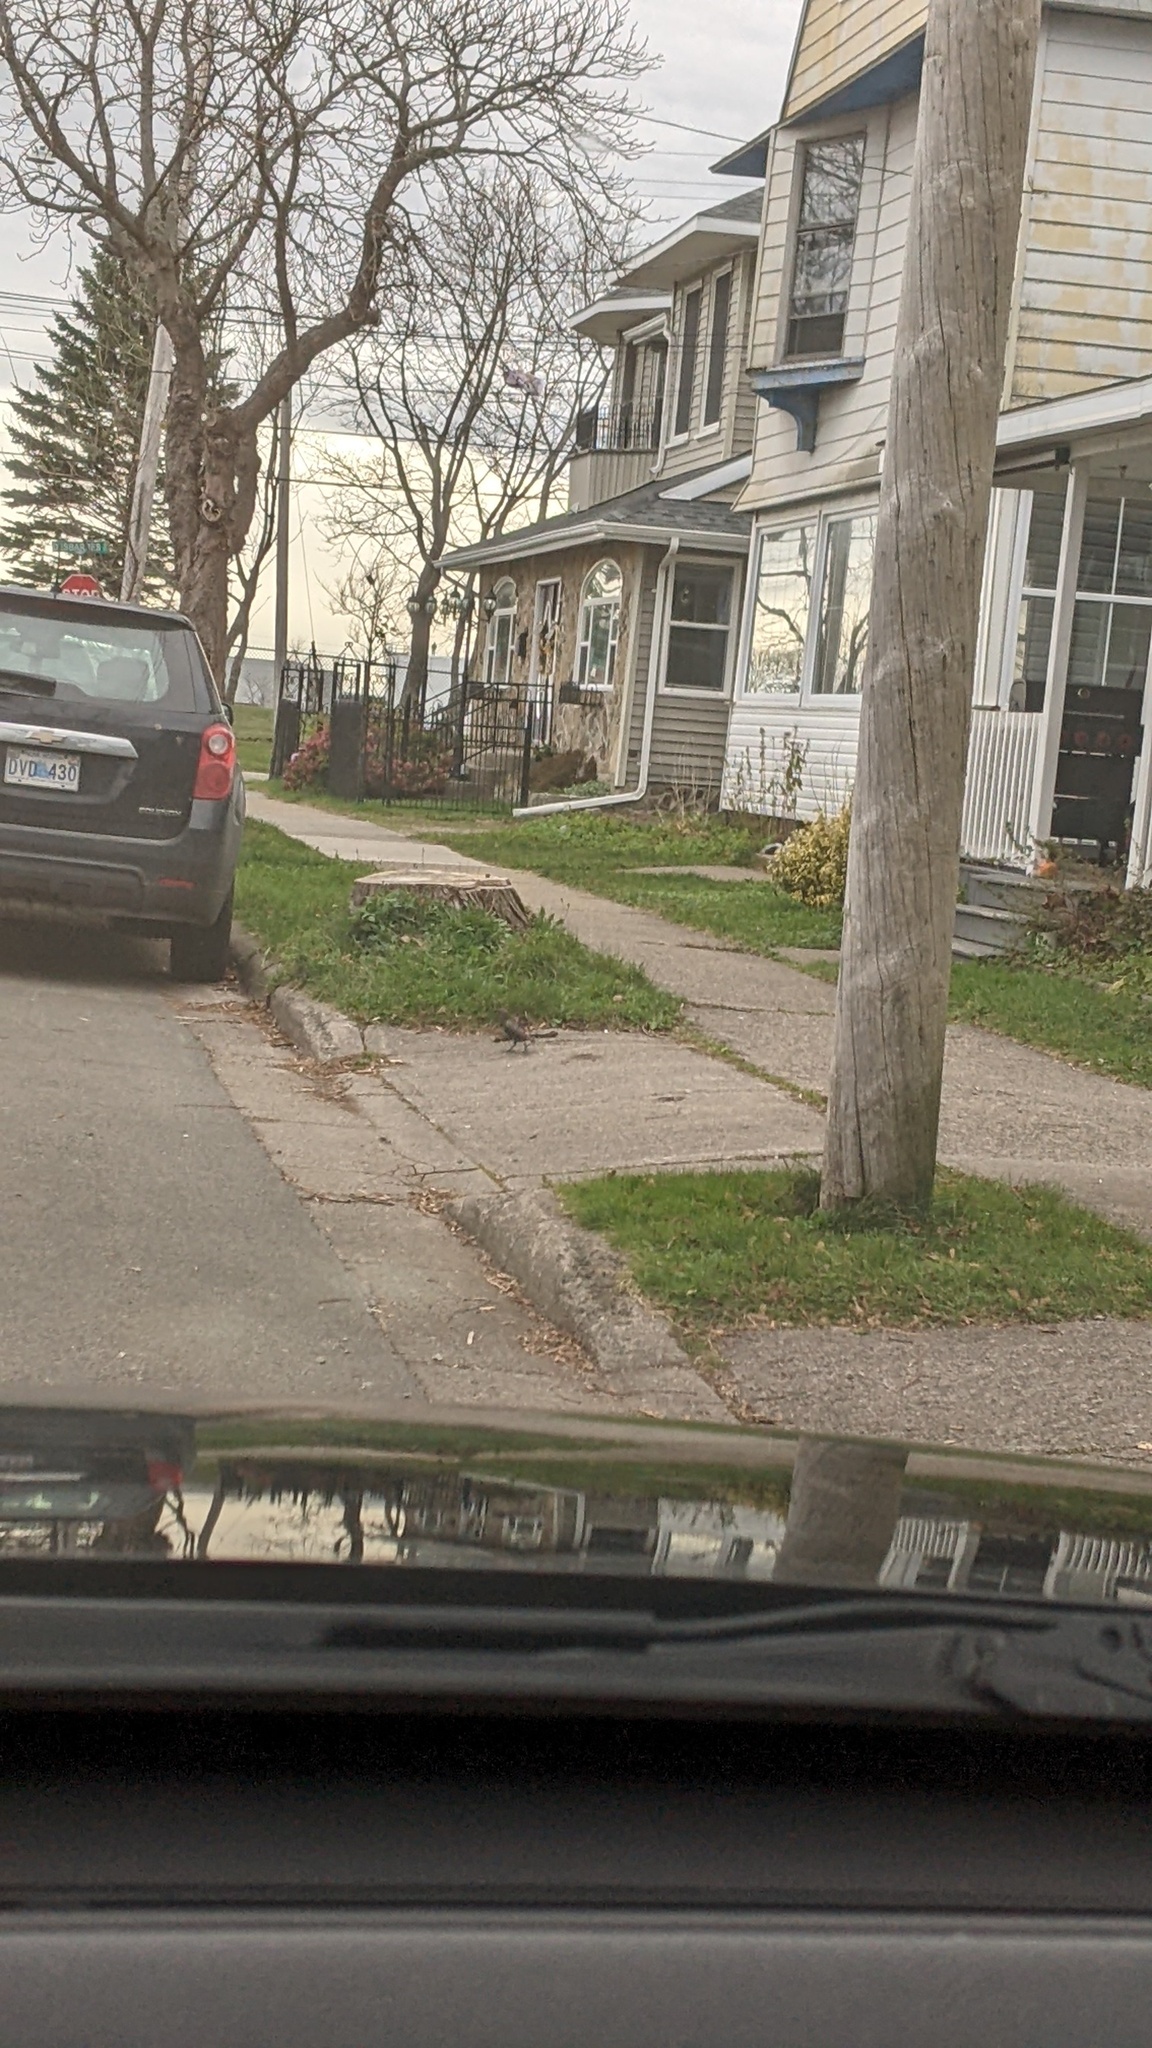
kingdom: Animalia
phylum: Chordata
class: Aves
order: Passeriformes
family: Sturnidae
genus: Sturnus
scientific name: Sturnus vulgaris
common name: Common starling
